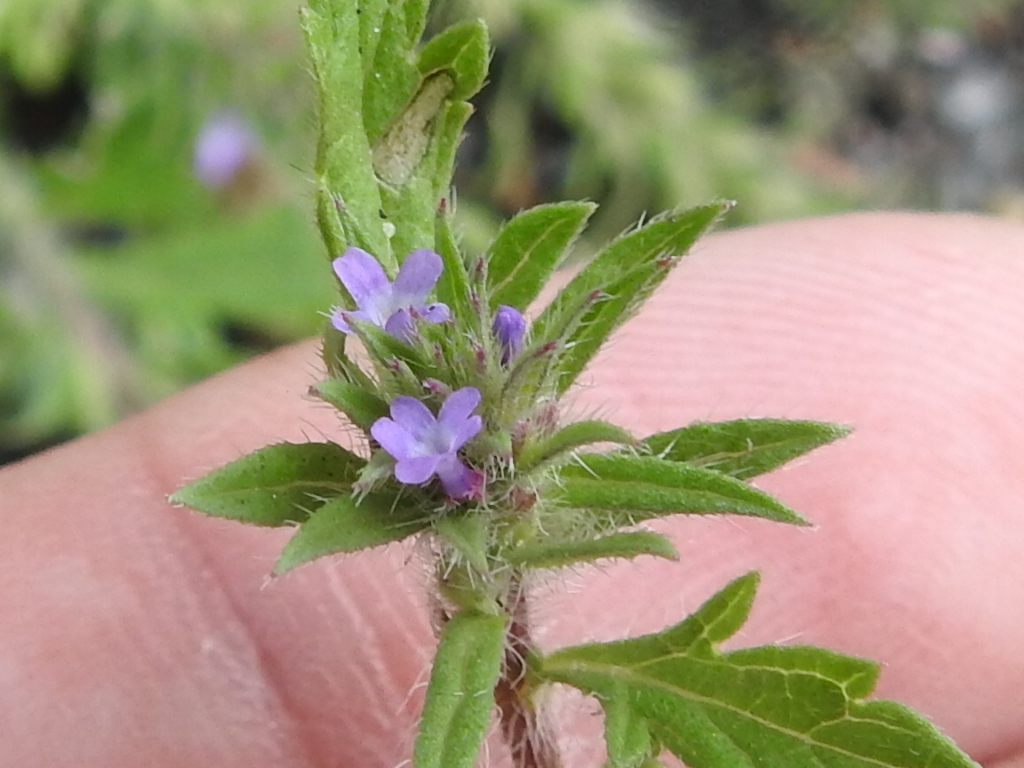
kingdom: Plantae
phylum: Tracheophyta
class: Magnoliopsida
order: Lamiales
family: Verbenaceae
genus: Verbena
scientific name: Verbena bracteata
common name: Bracted vervain
